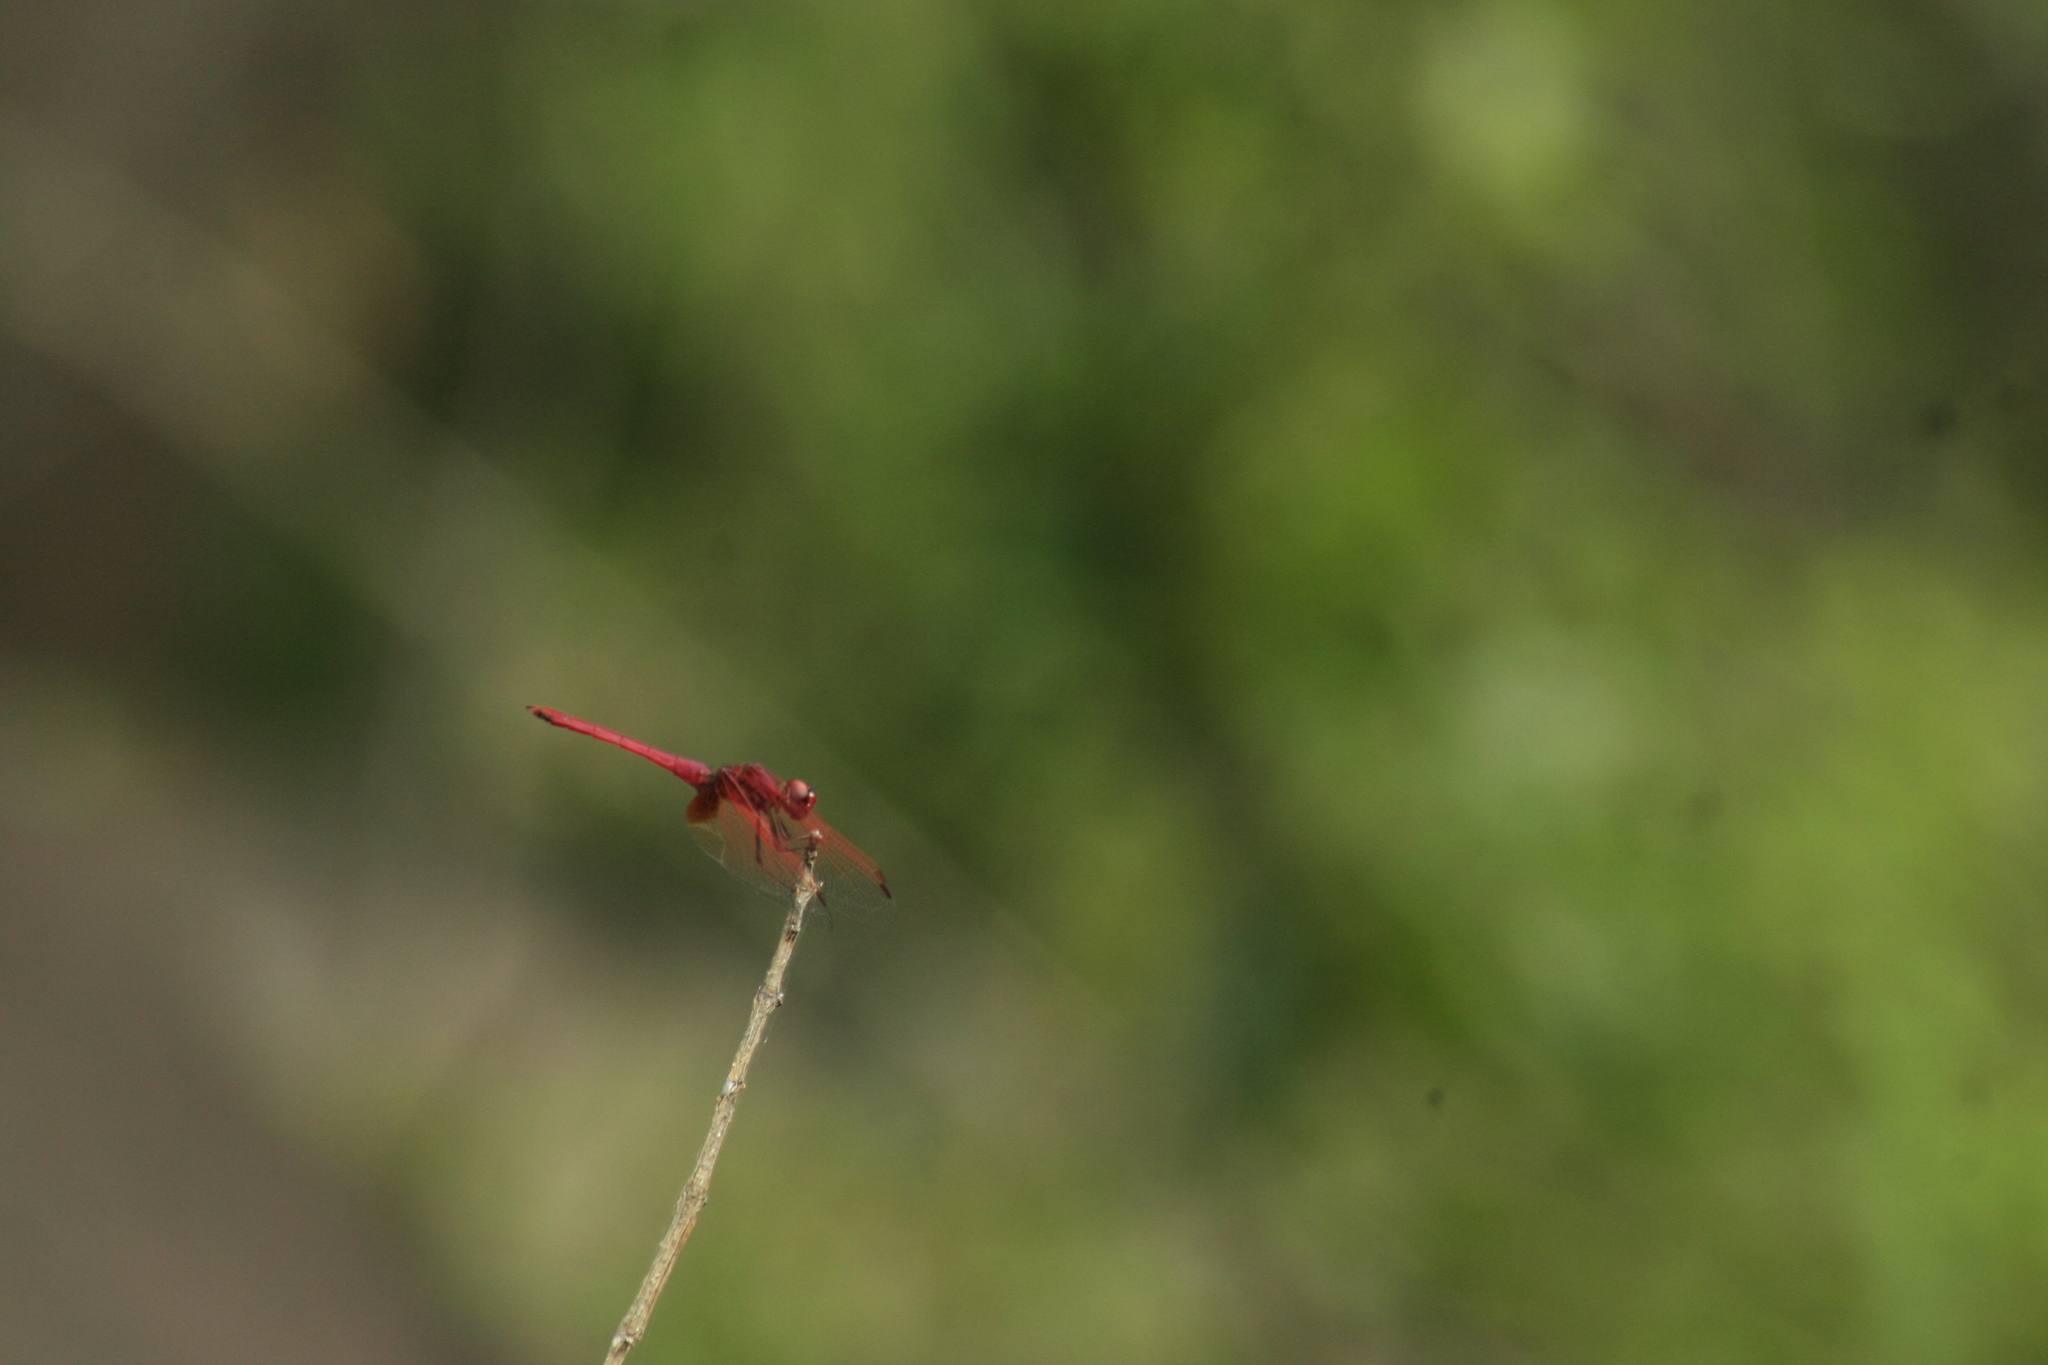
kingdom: Animalia
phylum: Arthropoda
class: Insecta
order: Odonata
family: Libellulidae
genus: Trithemis
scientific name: Trithemis aurora
